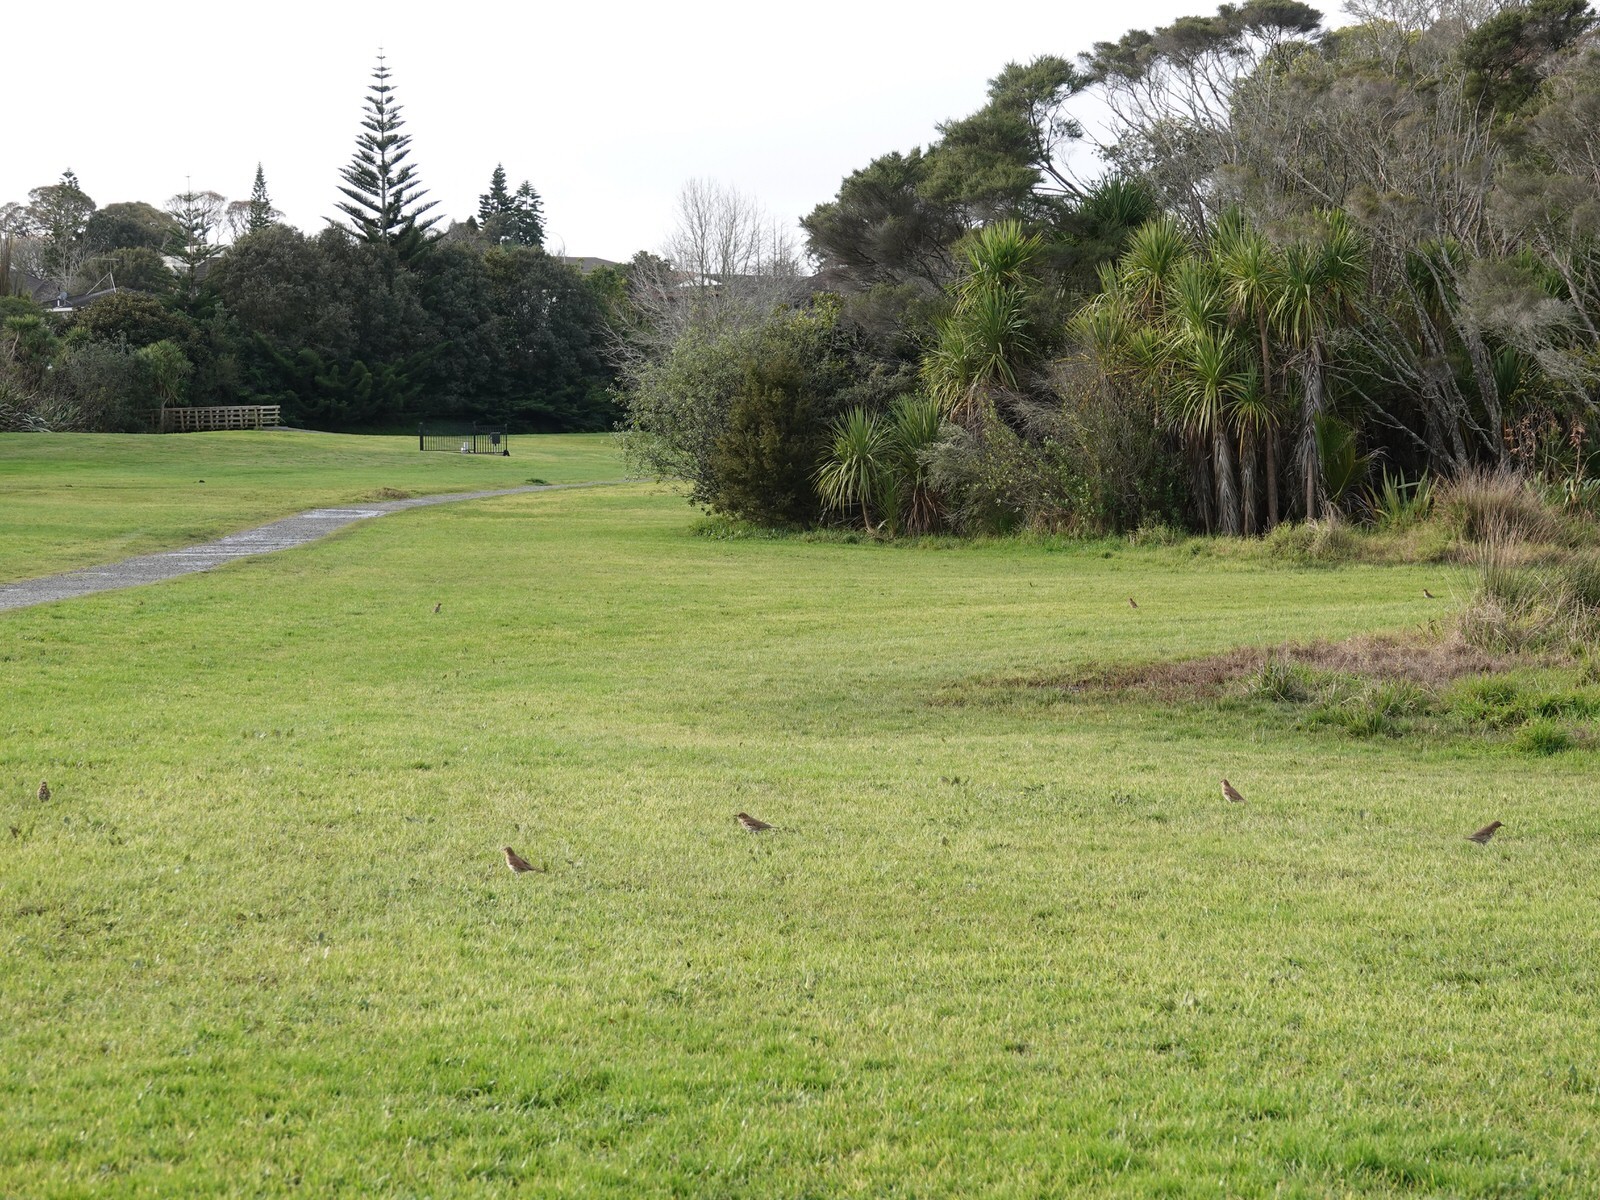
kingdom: Animalia
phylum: Chordata
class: Aves
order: Passeriformes
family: Turdidae
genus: Turdus
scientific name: Turdus philomelos
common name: Song thrush
